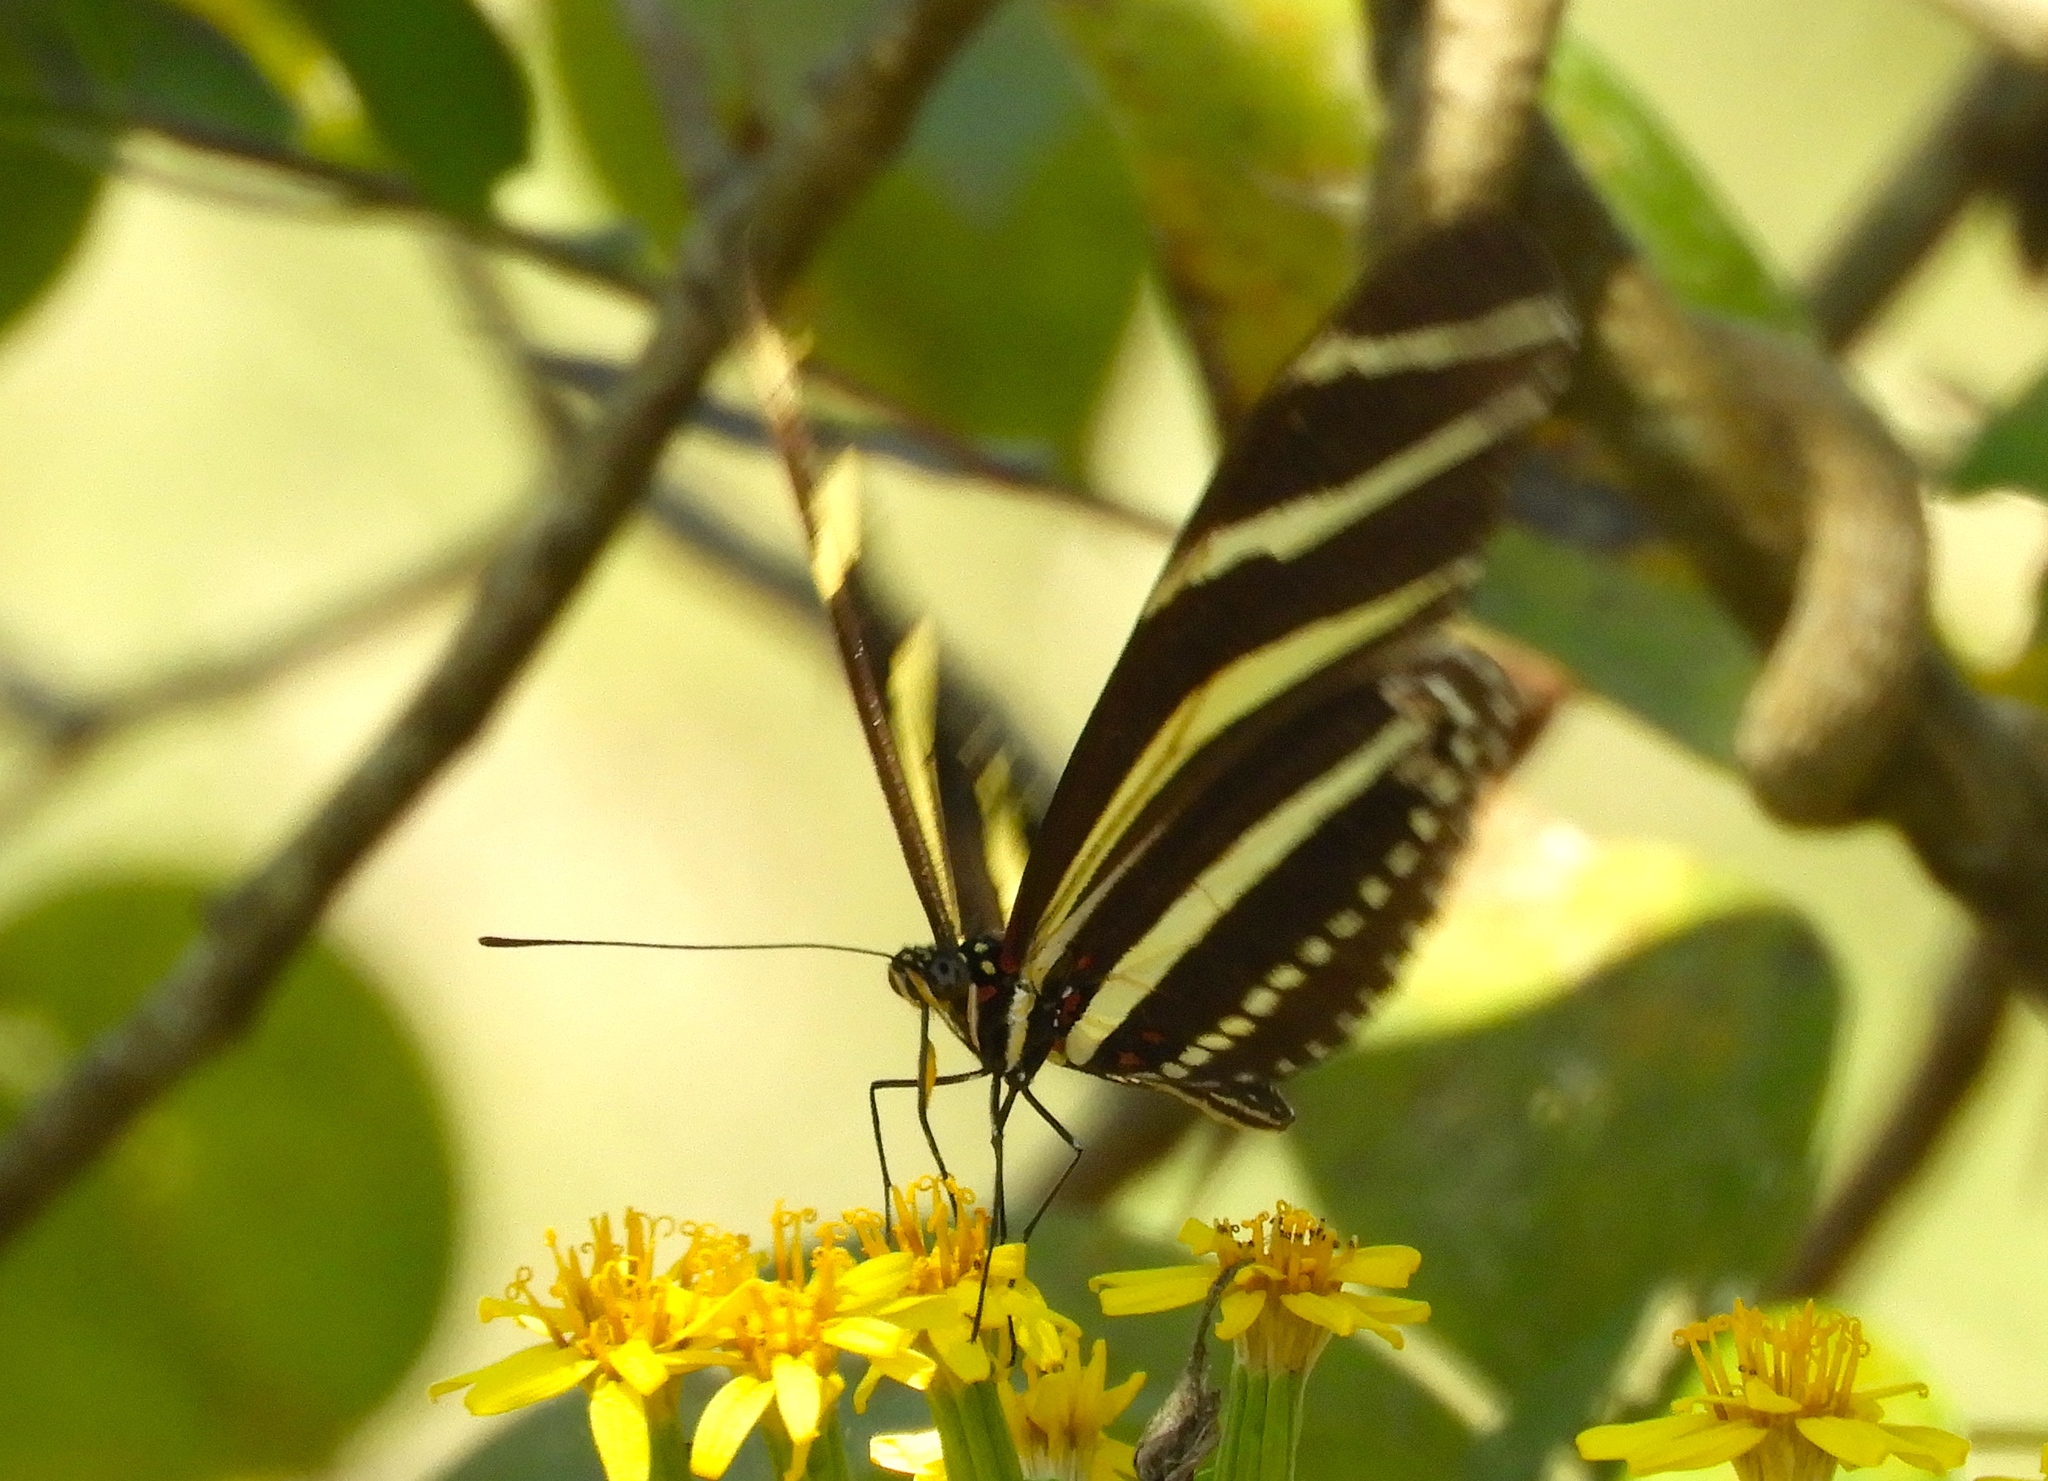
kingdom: Animalia
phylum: Arthropoda
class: Insecta
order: Lepidoptera
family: Nymphalidae
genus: Heliconius
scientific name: Heliconius charithonia
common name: Zebra long wing
